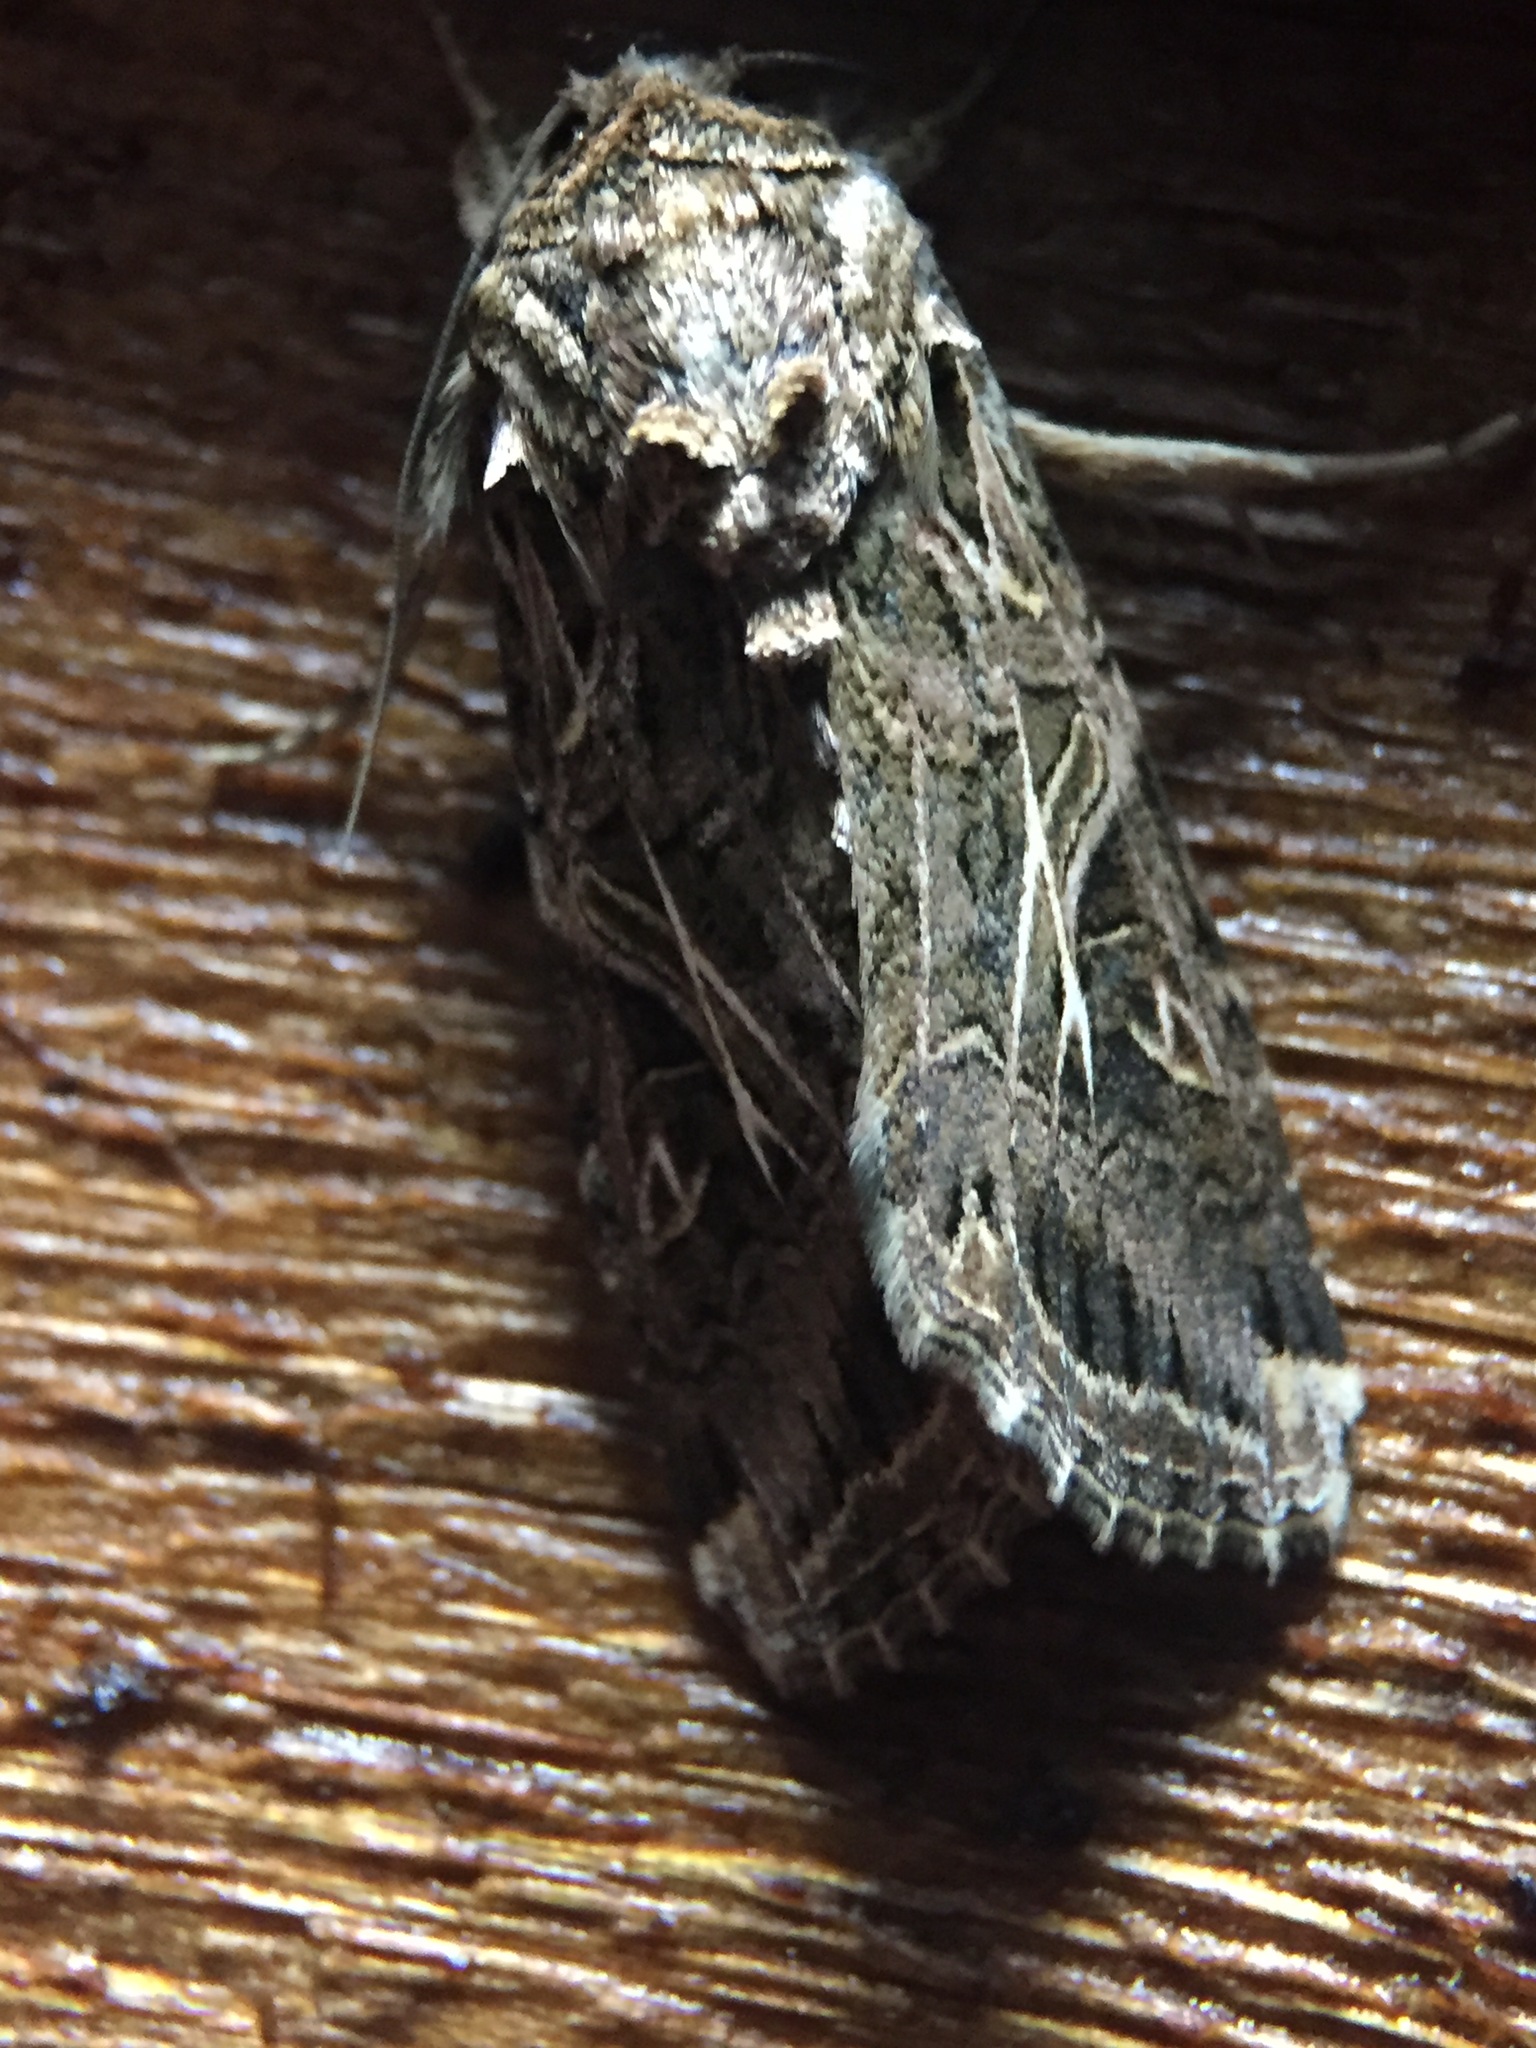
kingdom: Animalia
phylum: Arthropoda
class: Insecta
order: Lepidoptera
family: Noctuidae
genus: Spodoptera
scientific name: Spodoptera litura
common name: Asian cotton leafworm
